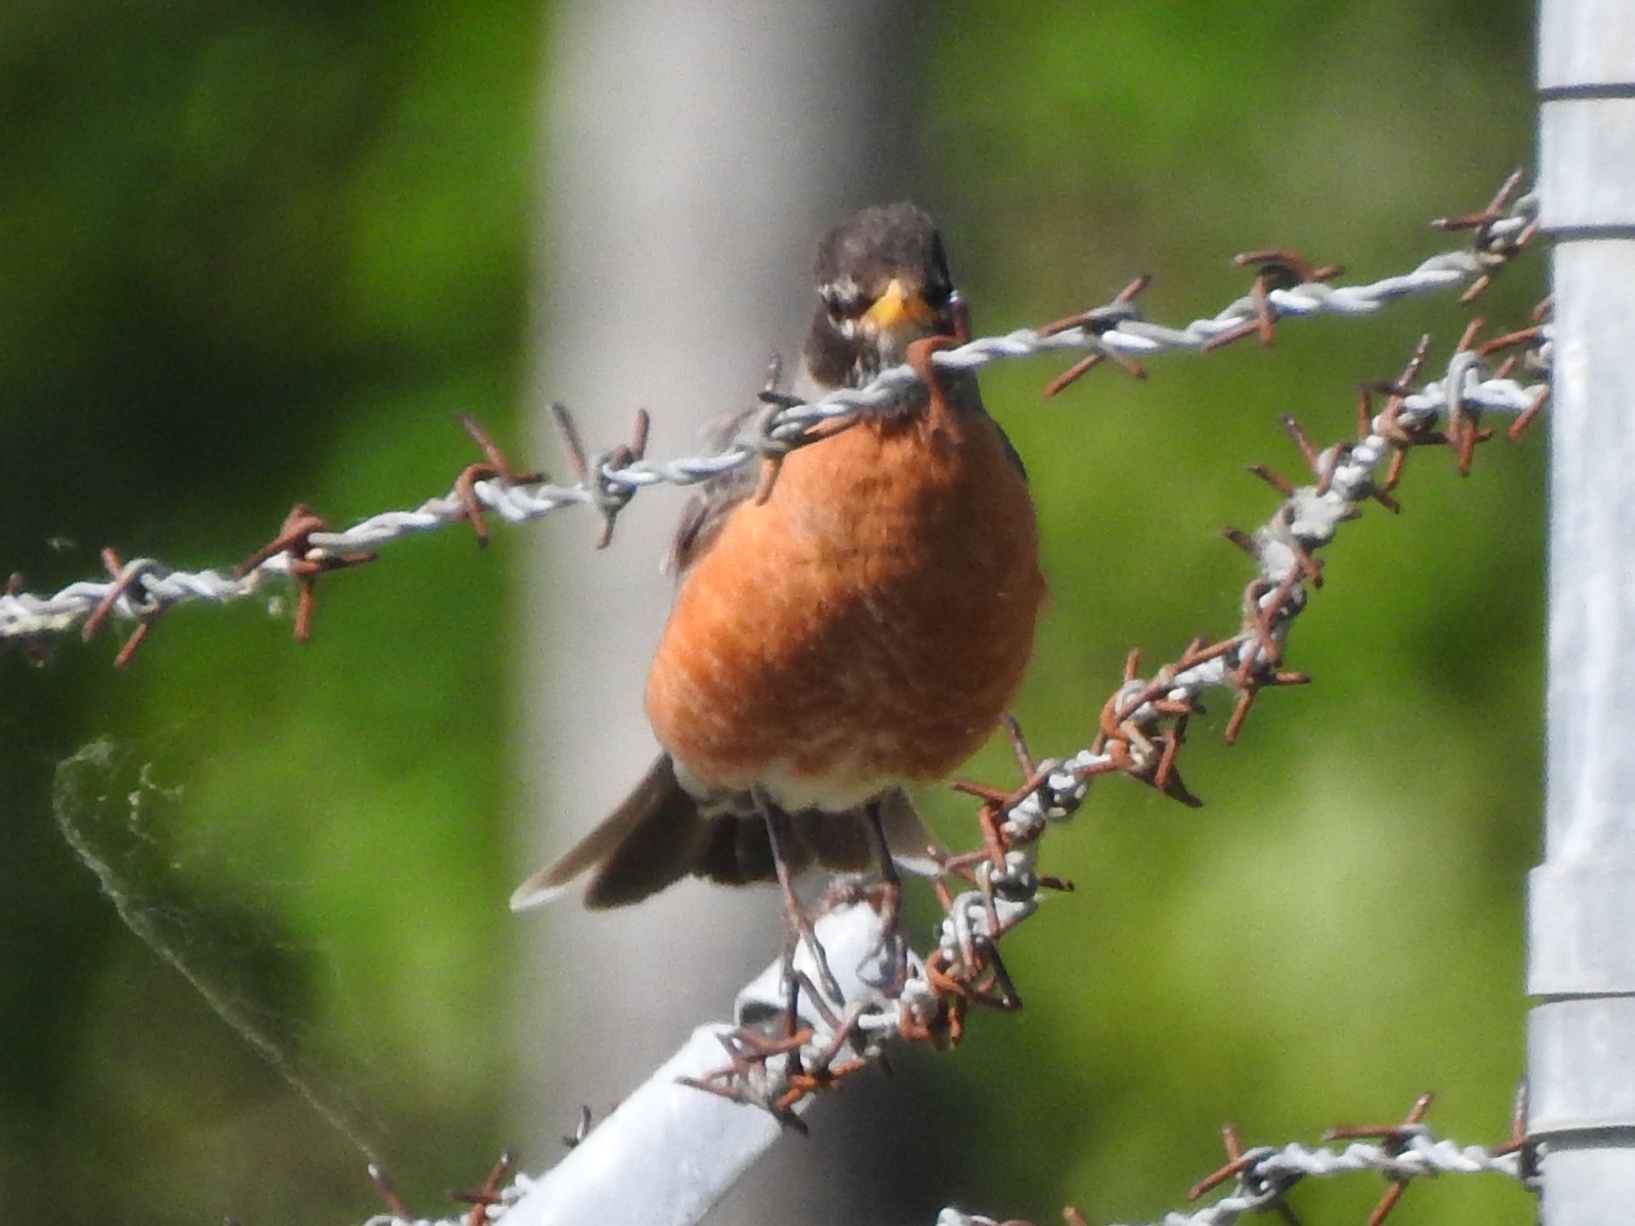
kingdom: Animalia
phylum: Chordata
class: Aves
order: Passeriformes
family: Turdidae
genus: Turdus
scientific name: Turdus migratorius
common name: American robin
